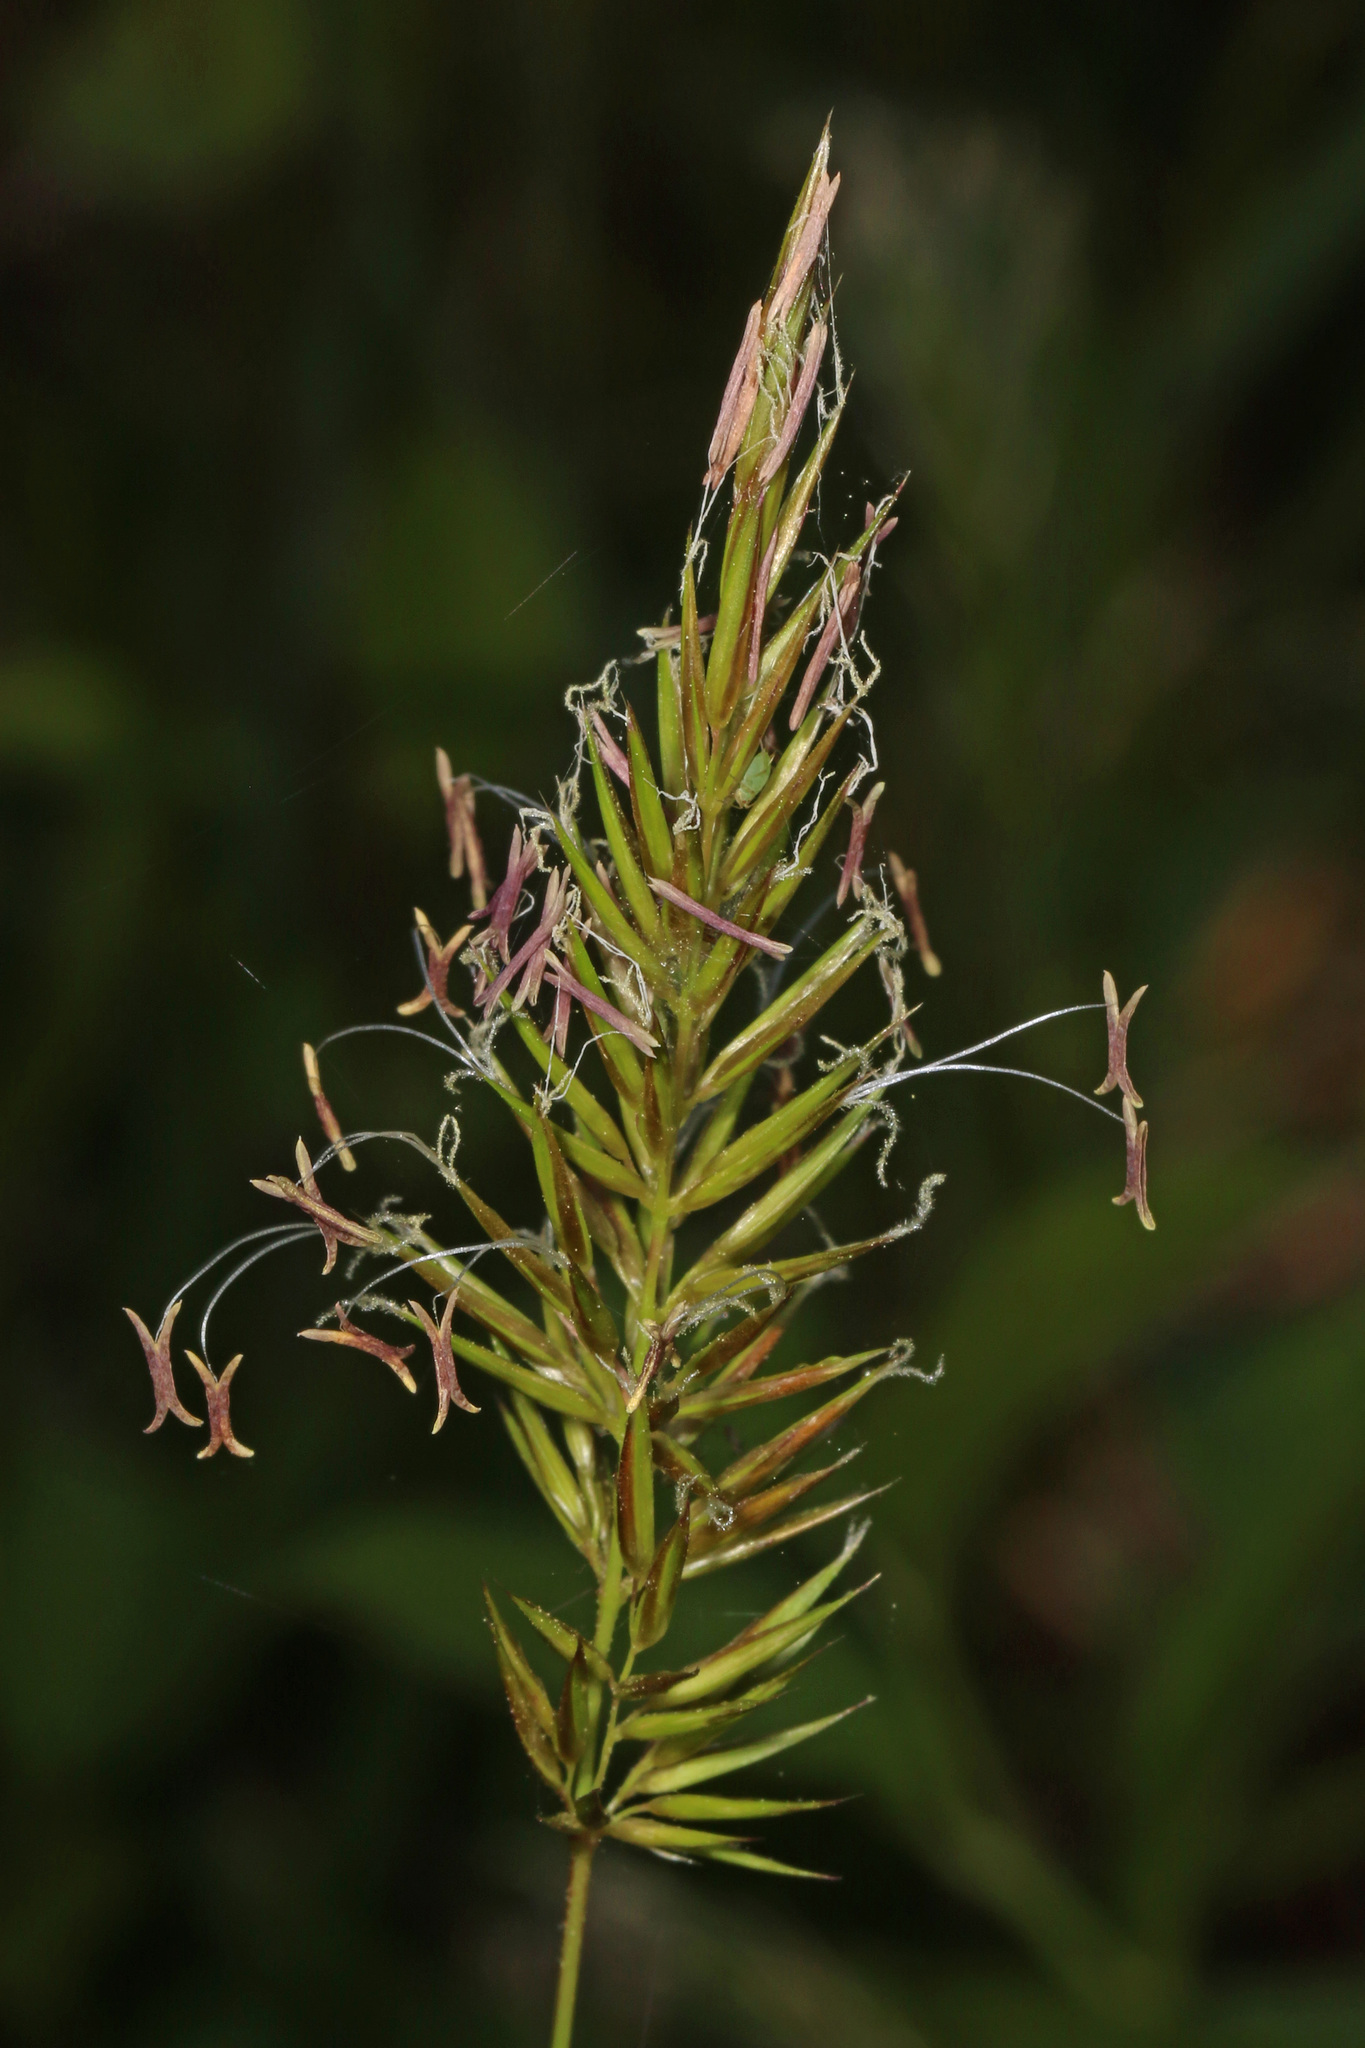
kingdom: Plantae
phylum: Tracheophyta
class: Liliopsida
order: Poales
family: Poaceae
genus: Anthoxanthum
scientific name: Anthoxanthum odoratum
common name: Sweet vernalgrass
